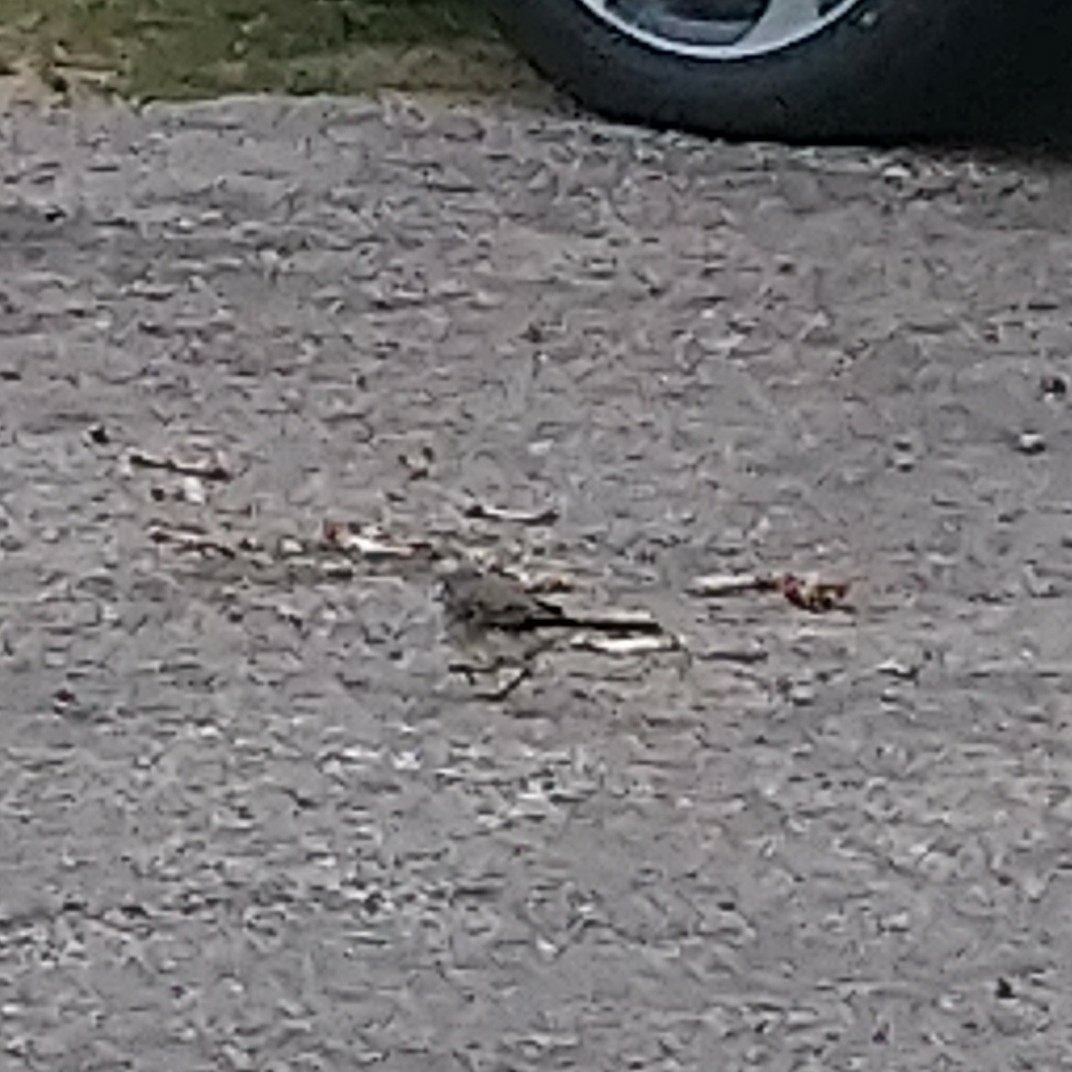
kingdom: Animalia
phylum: Chordata
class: Aves
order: Passeriformes
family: Motacillidae
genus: Motacilla
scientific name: Motacilla capensis
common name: Cape wagtail
